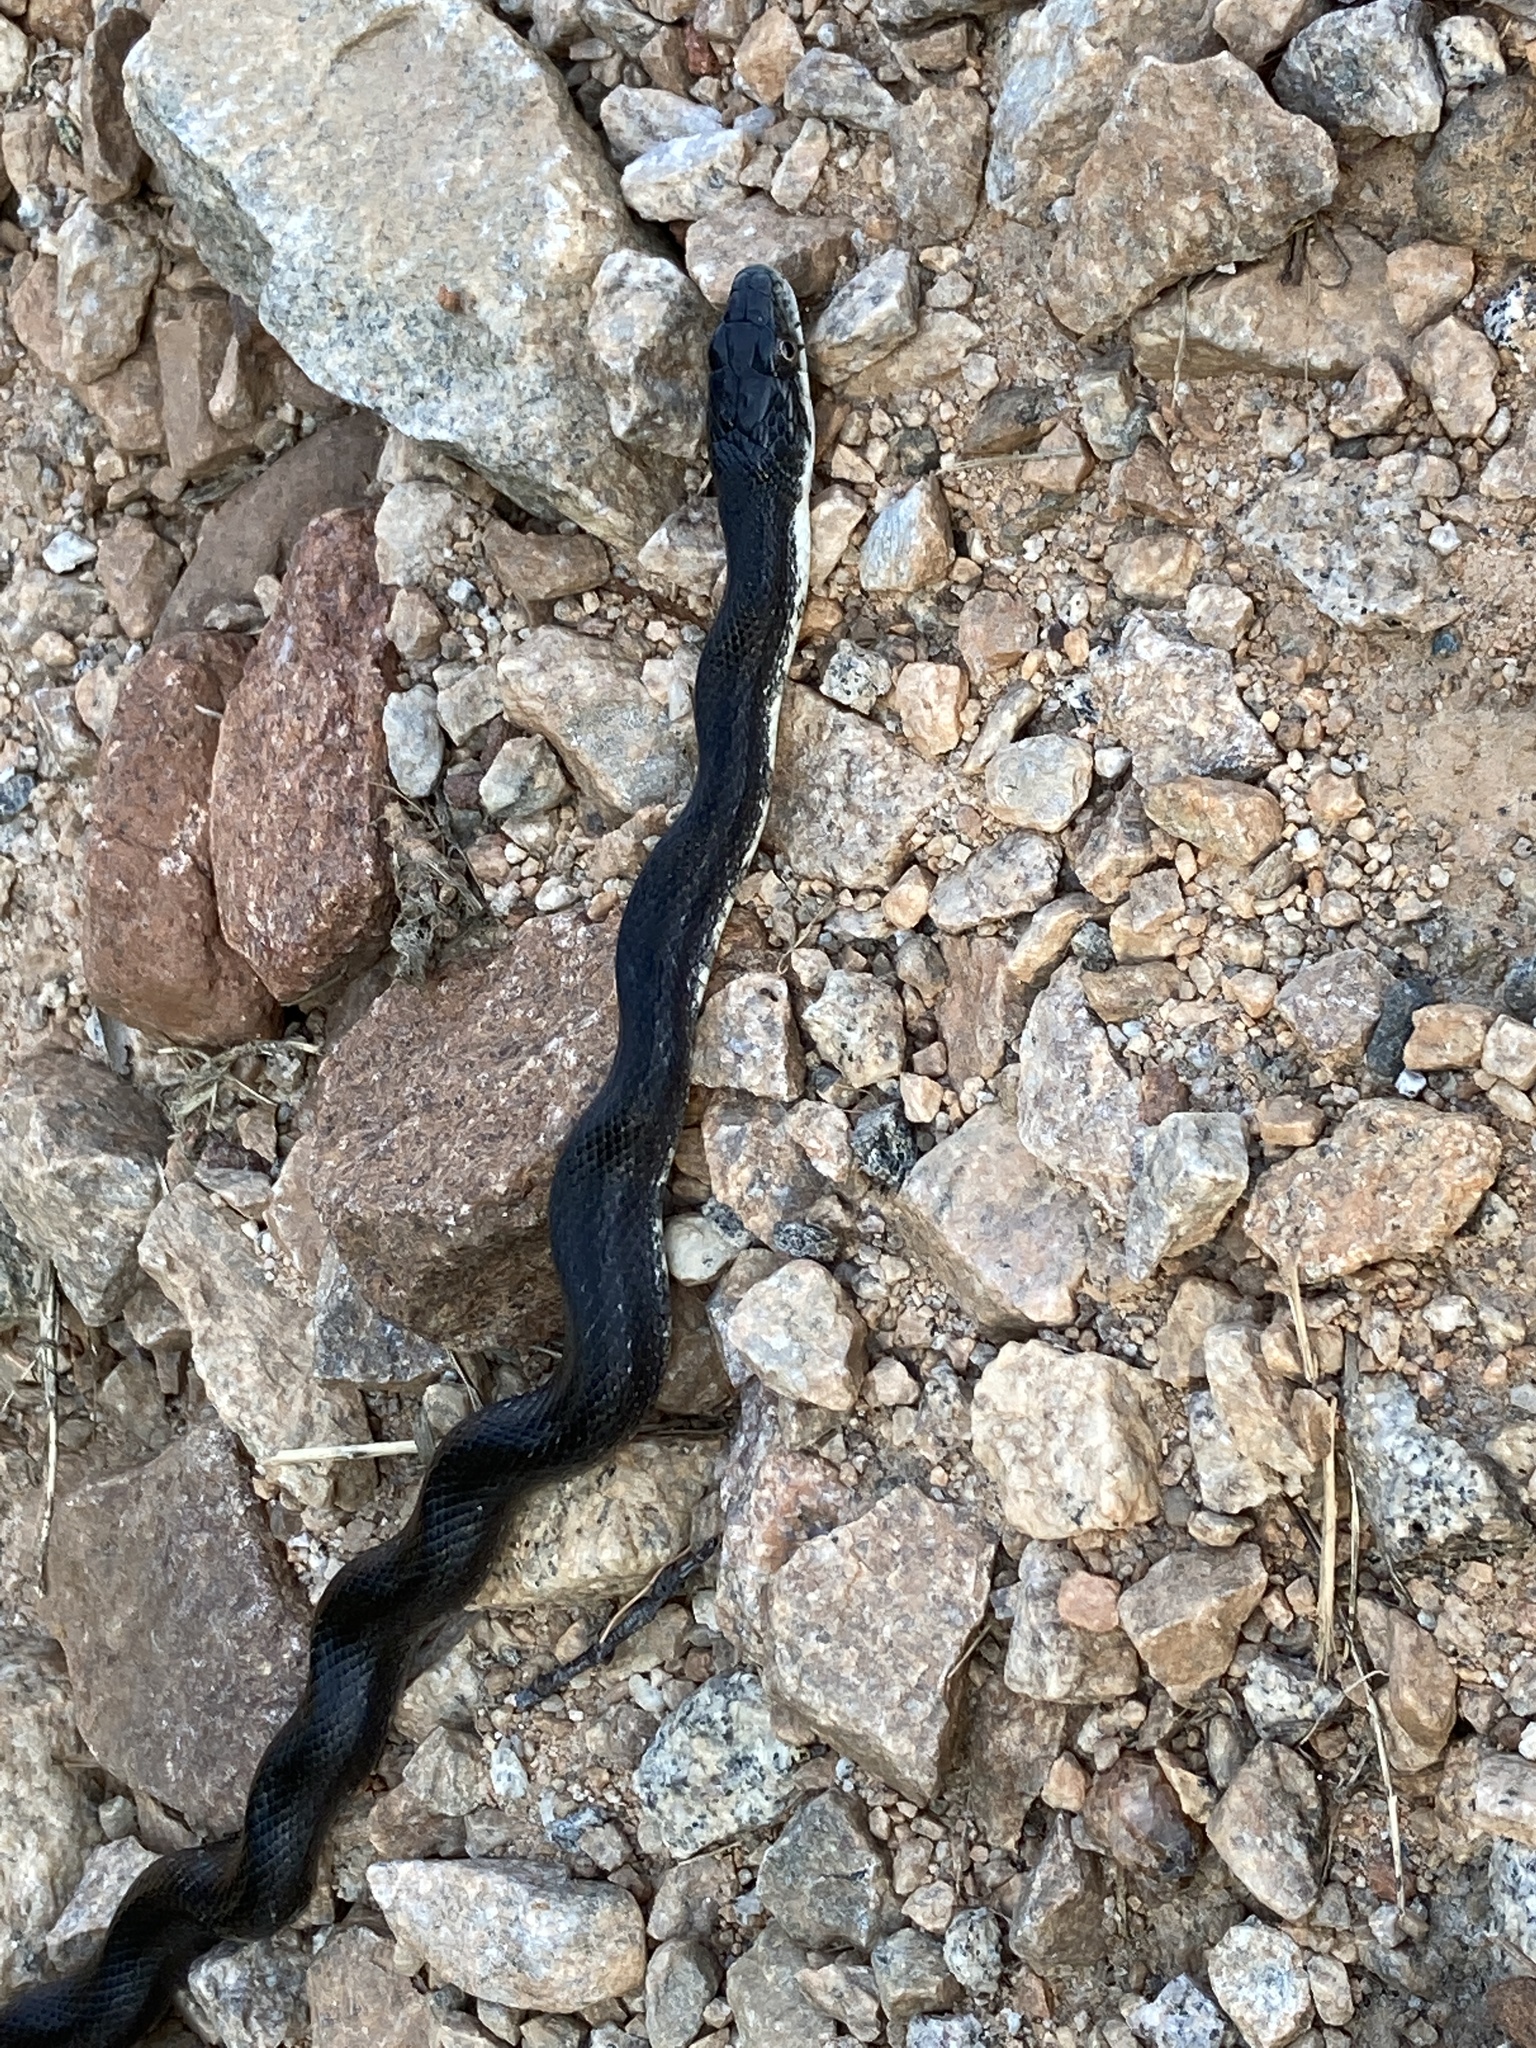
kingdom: Animalia
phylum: Chordata
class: Squamata
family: Colubridae
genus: Pantherophis
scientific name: Pantherophis alleghaniensis
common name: Eastern rat snake
